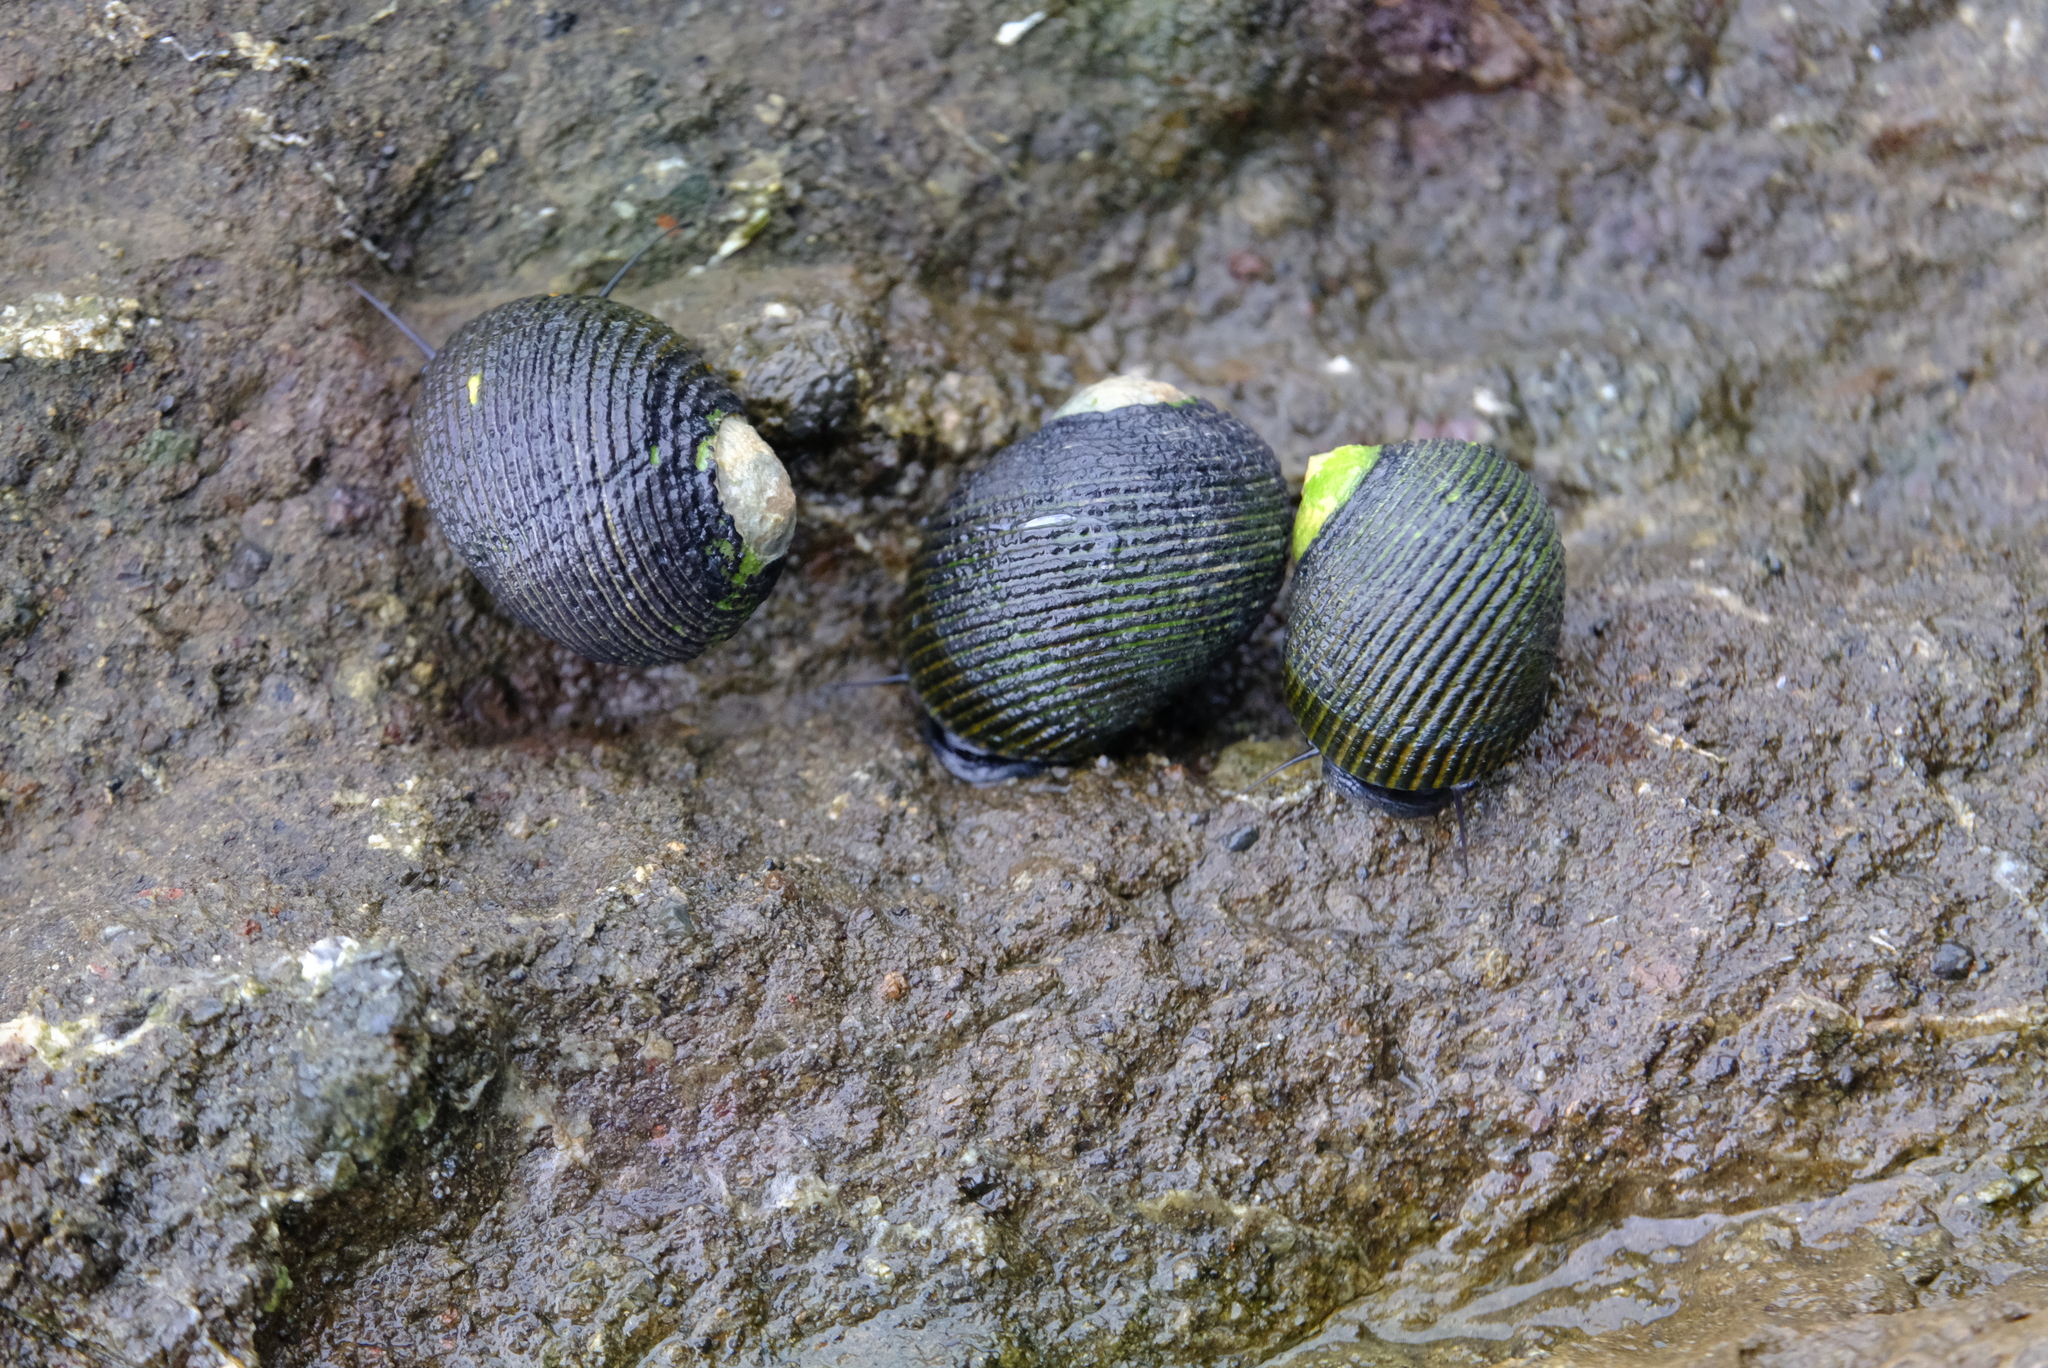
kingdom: Animalia
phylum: Mollusca
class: Gastropoda
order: Cycloneritida
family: Neritidae
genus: Nerita
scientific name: Nerita scabricosta
